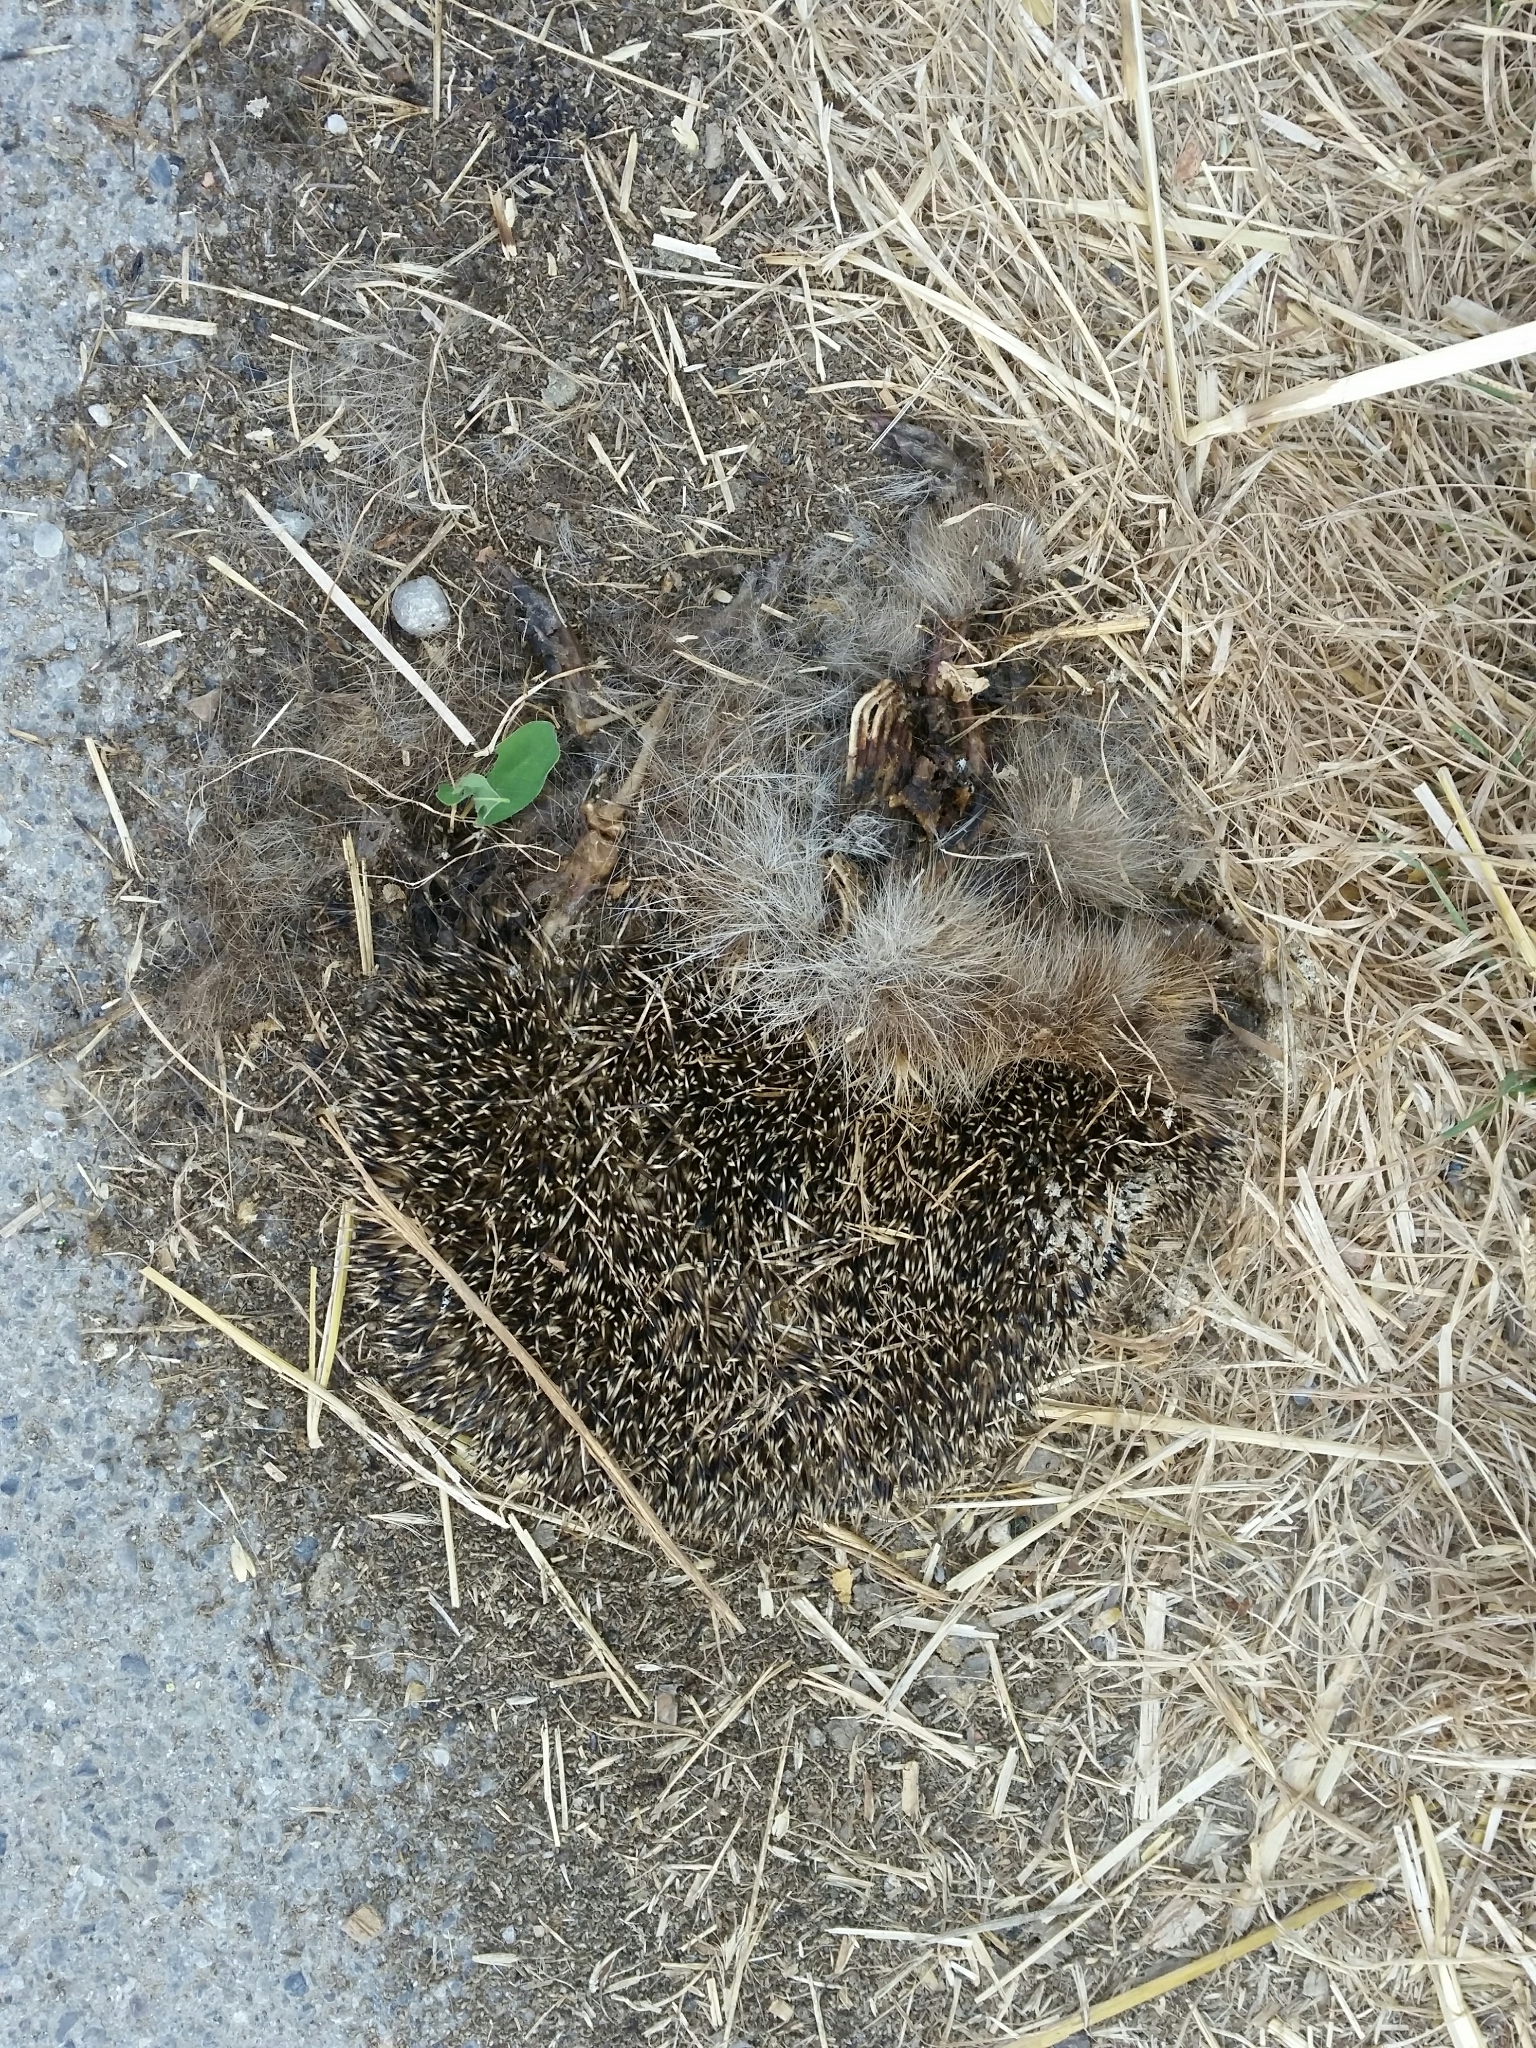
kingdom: Animalia
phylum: Chordata
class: Mammalia
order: Erinaceomorpha
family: Erinaceidae
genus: Erinaceus
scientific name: Erinaceus europaeus
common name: West european hedgehog
